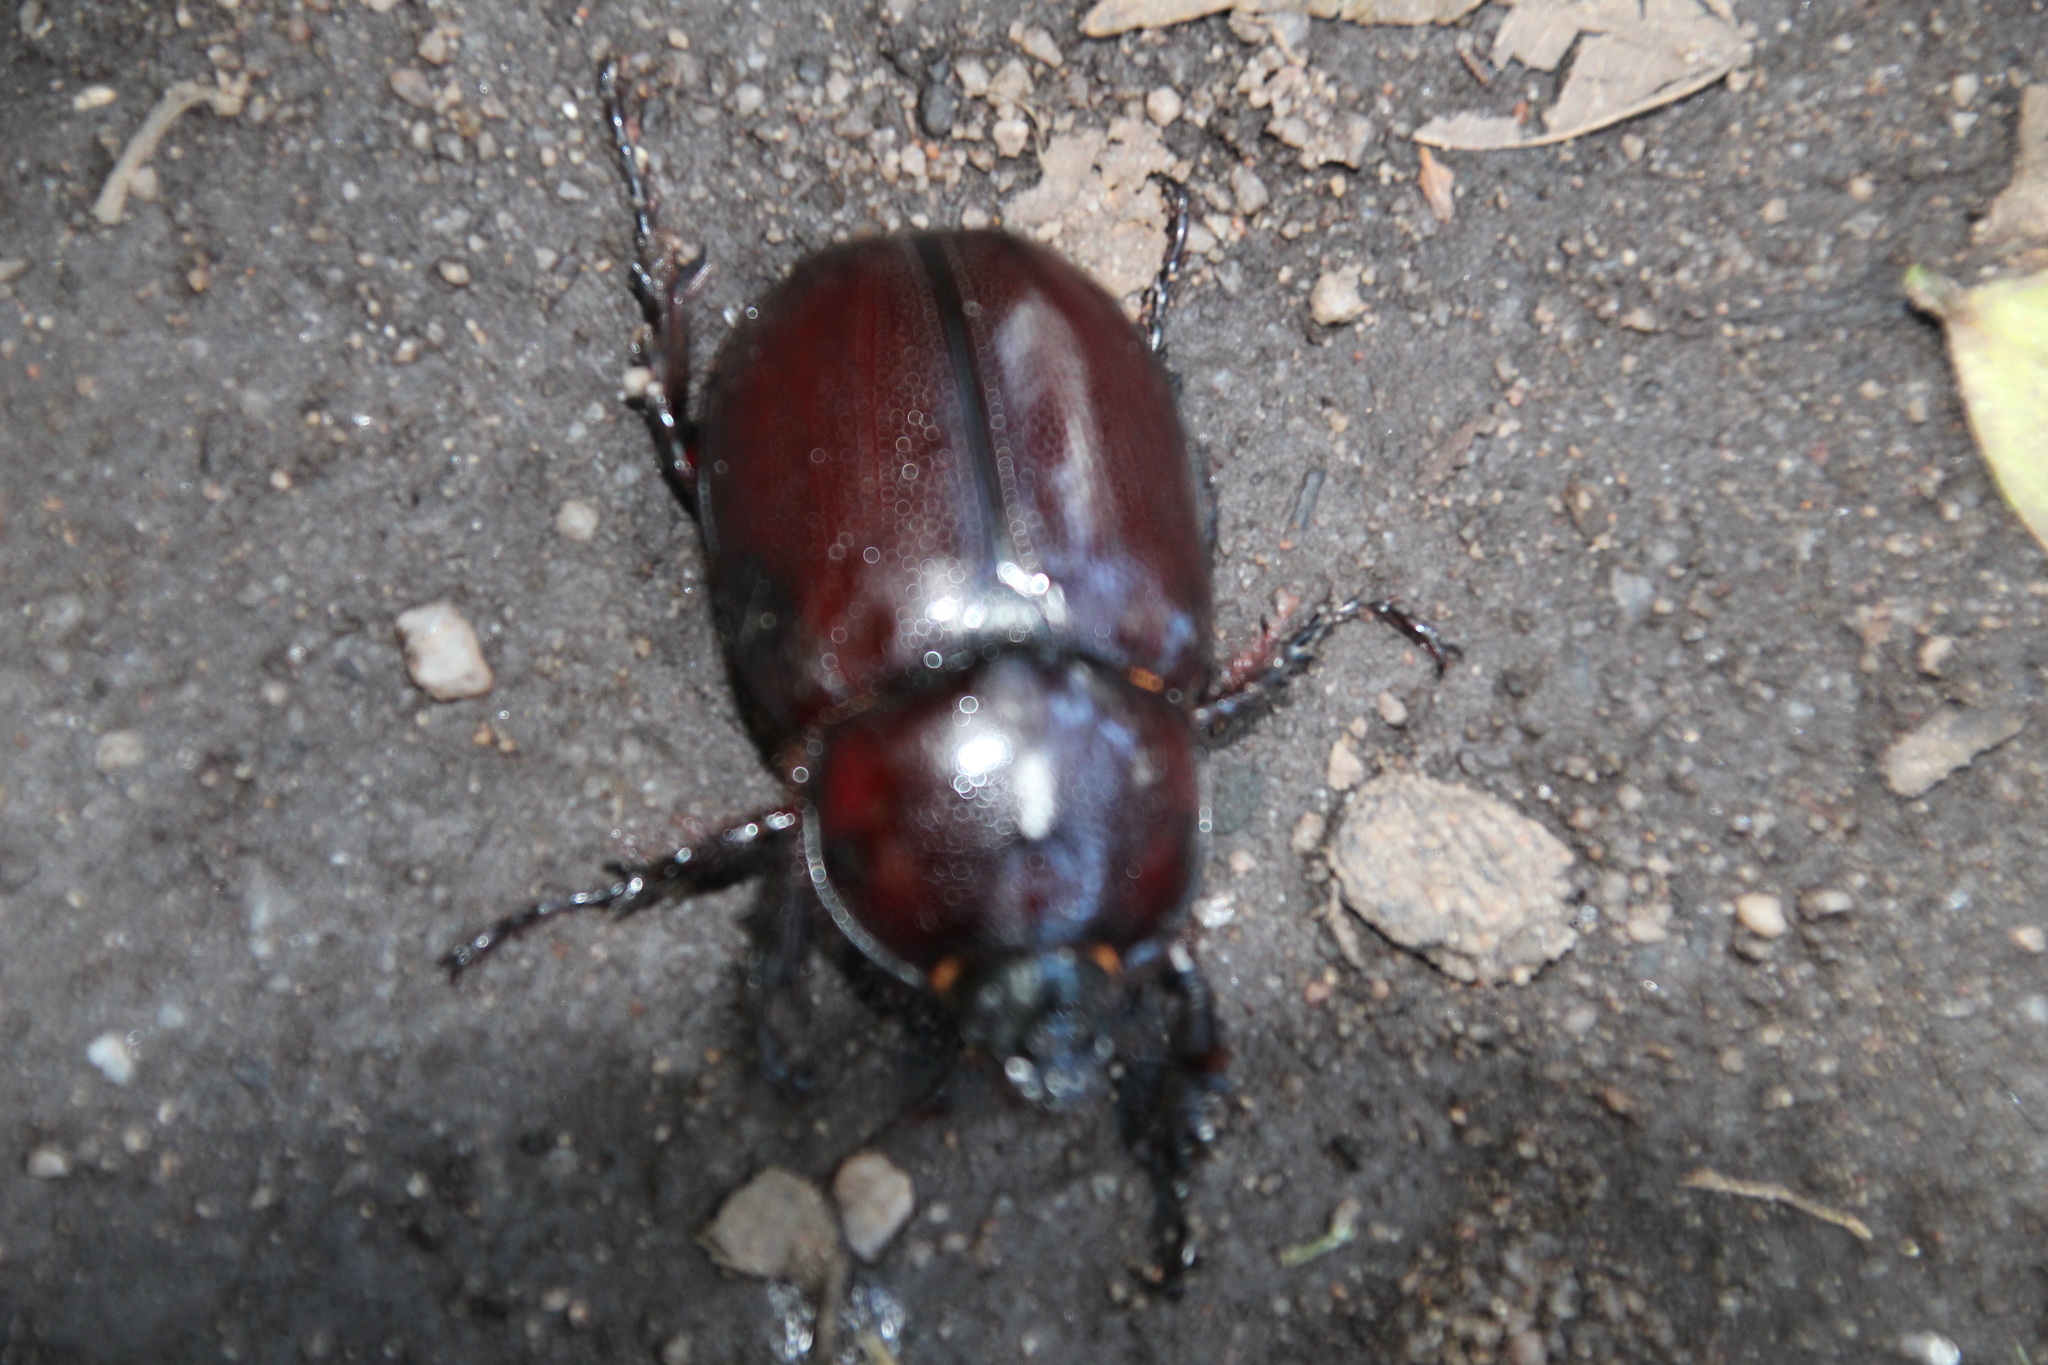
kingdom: Animalia
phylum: Arthropoda
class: Insecta
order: Coleoptera
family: Scarabaeidae
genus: Oryctes
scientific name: Oryctes boas
